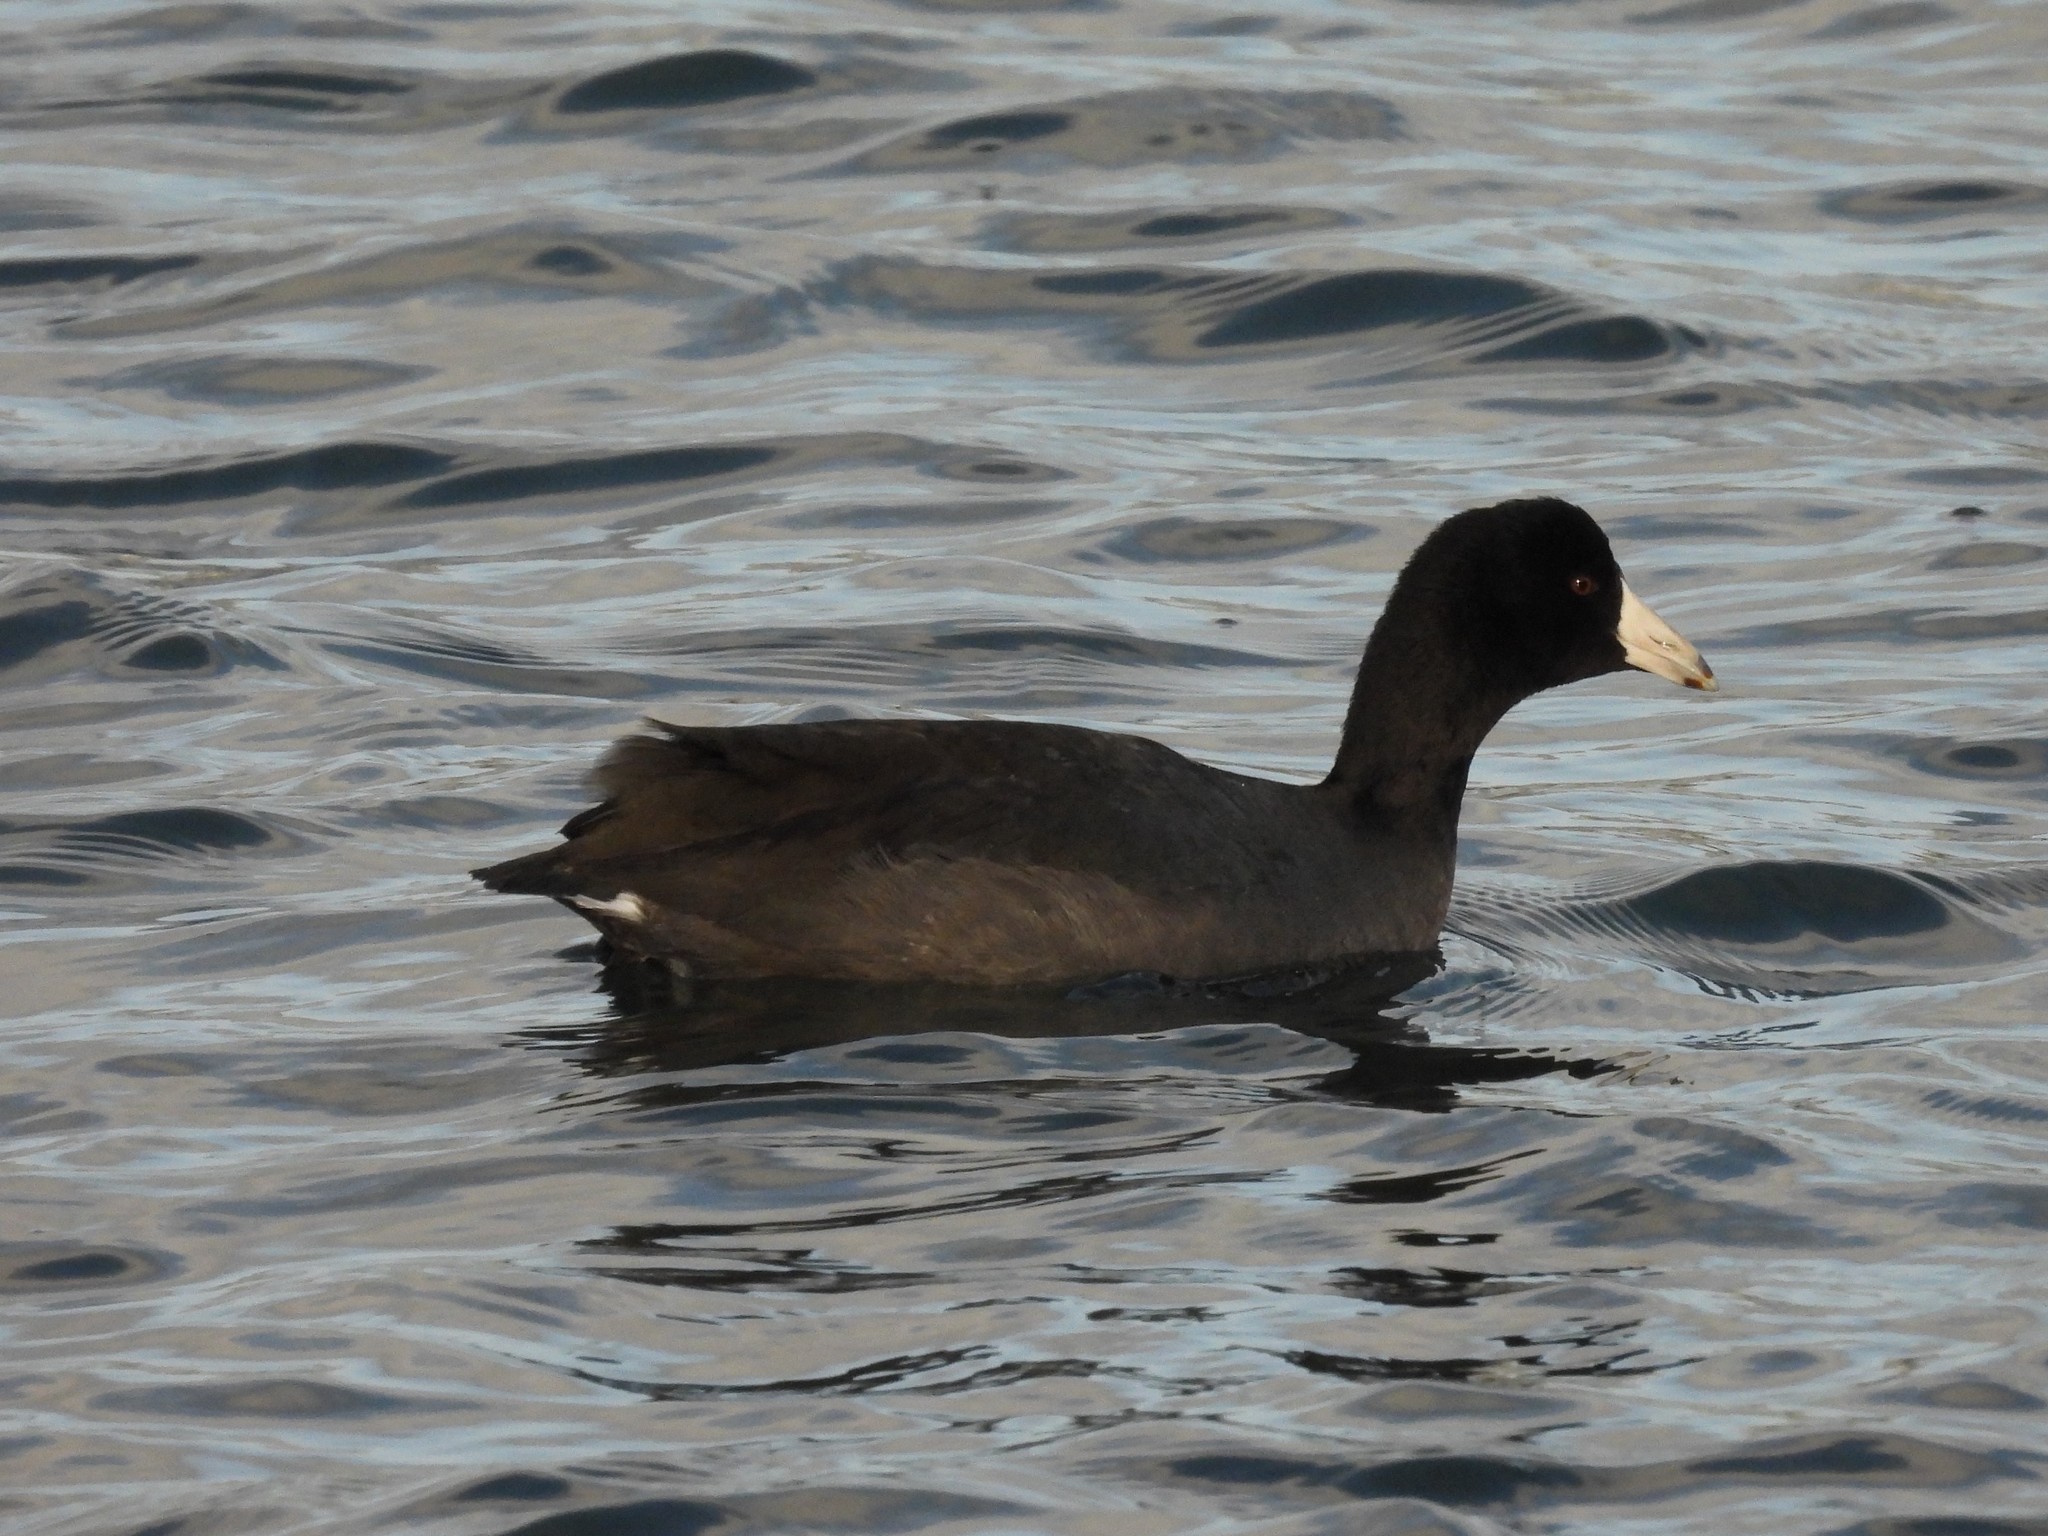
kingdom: Animalia
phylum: Chordata
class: Aves
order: Gruiformes
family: Rallidae
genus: Fulica
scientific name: Fulica americana
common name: American coot
